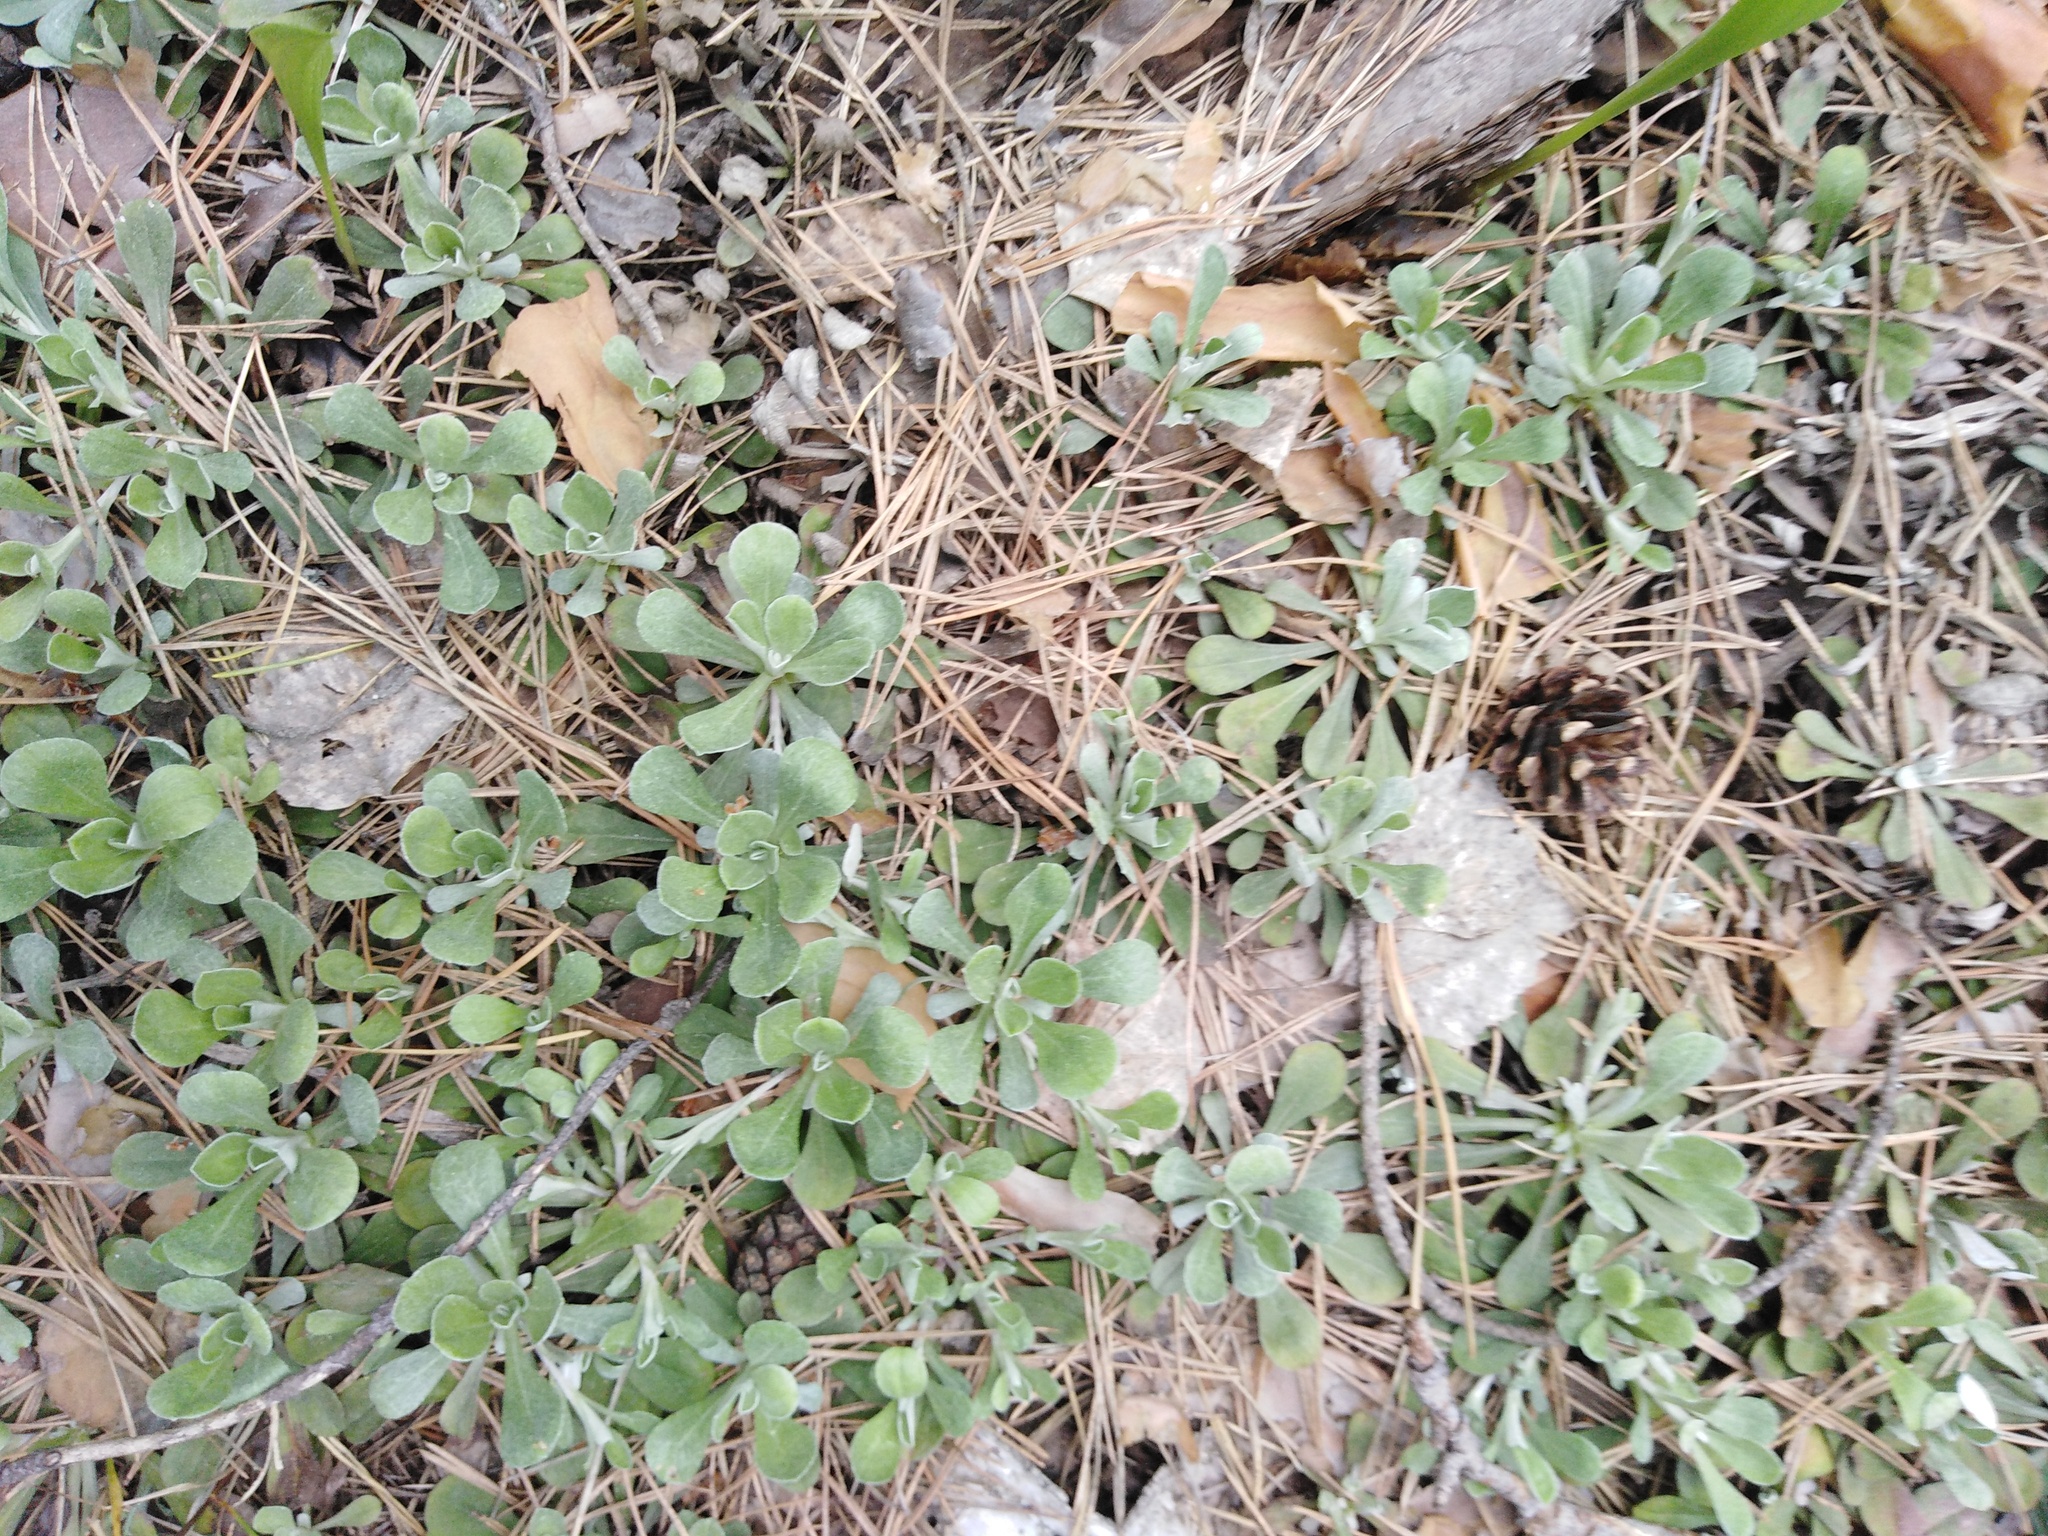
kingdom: Plantae
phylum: Tracheophyta
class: Magnoliopsida
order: Asterales
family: Asteraceae
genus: Antennaria
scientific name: Antennaria dioica
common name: Mountain everlasting
